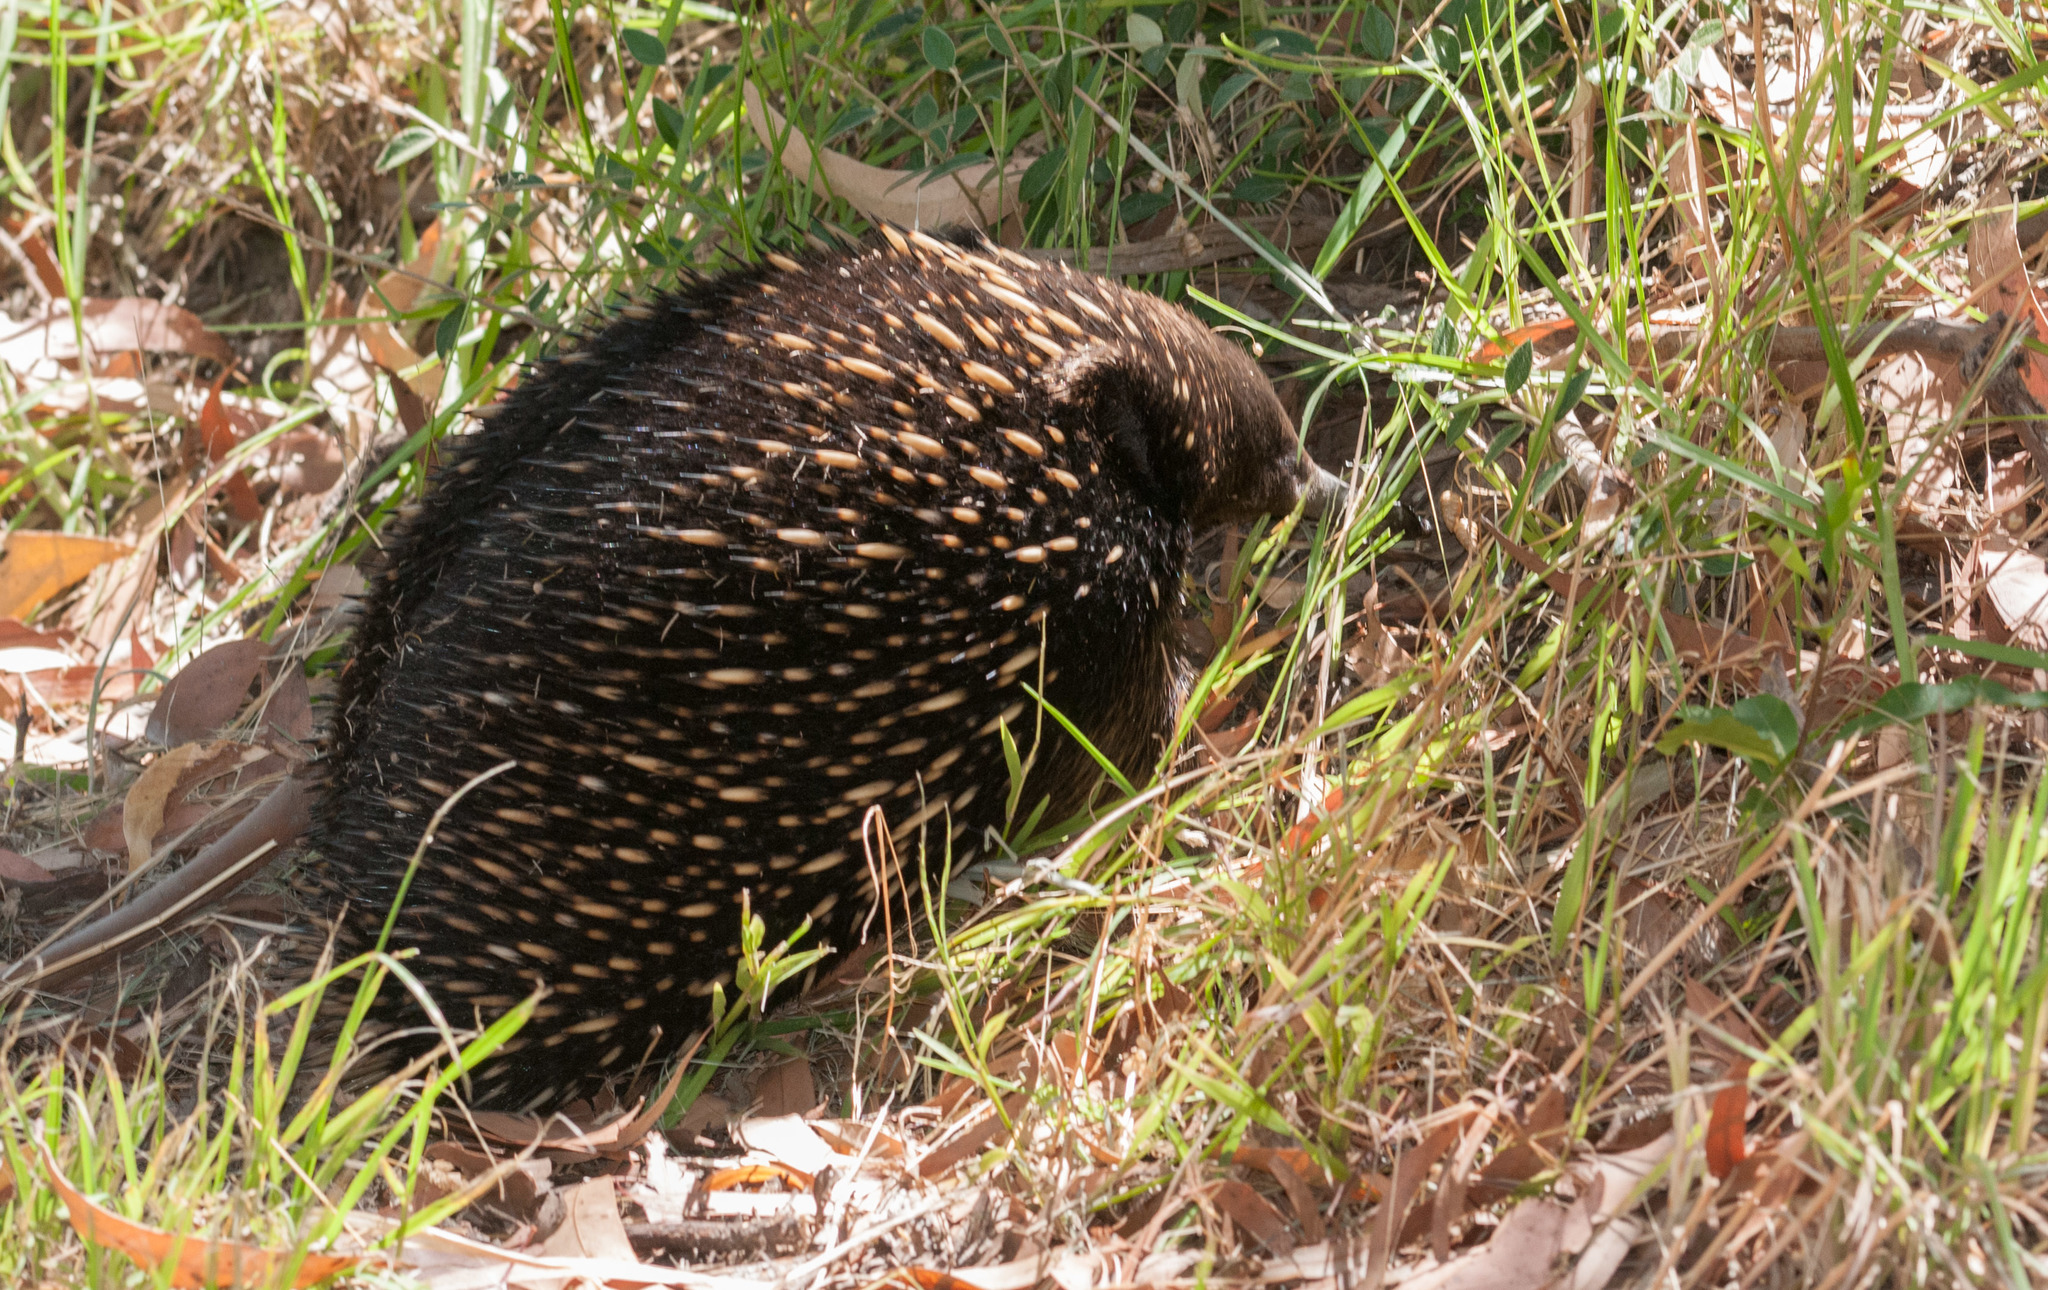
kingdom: Animalia
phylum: Chordata
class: Mammalia
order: Monotremata
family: Tachyglossidae
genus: Tachyglossus
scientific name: Tachyglossus aculeatus
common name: Short-beaked echidna
